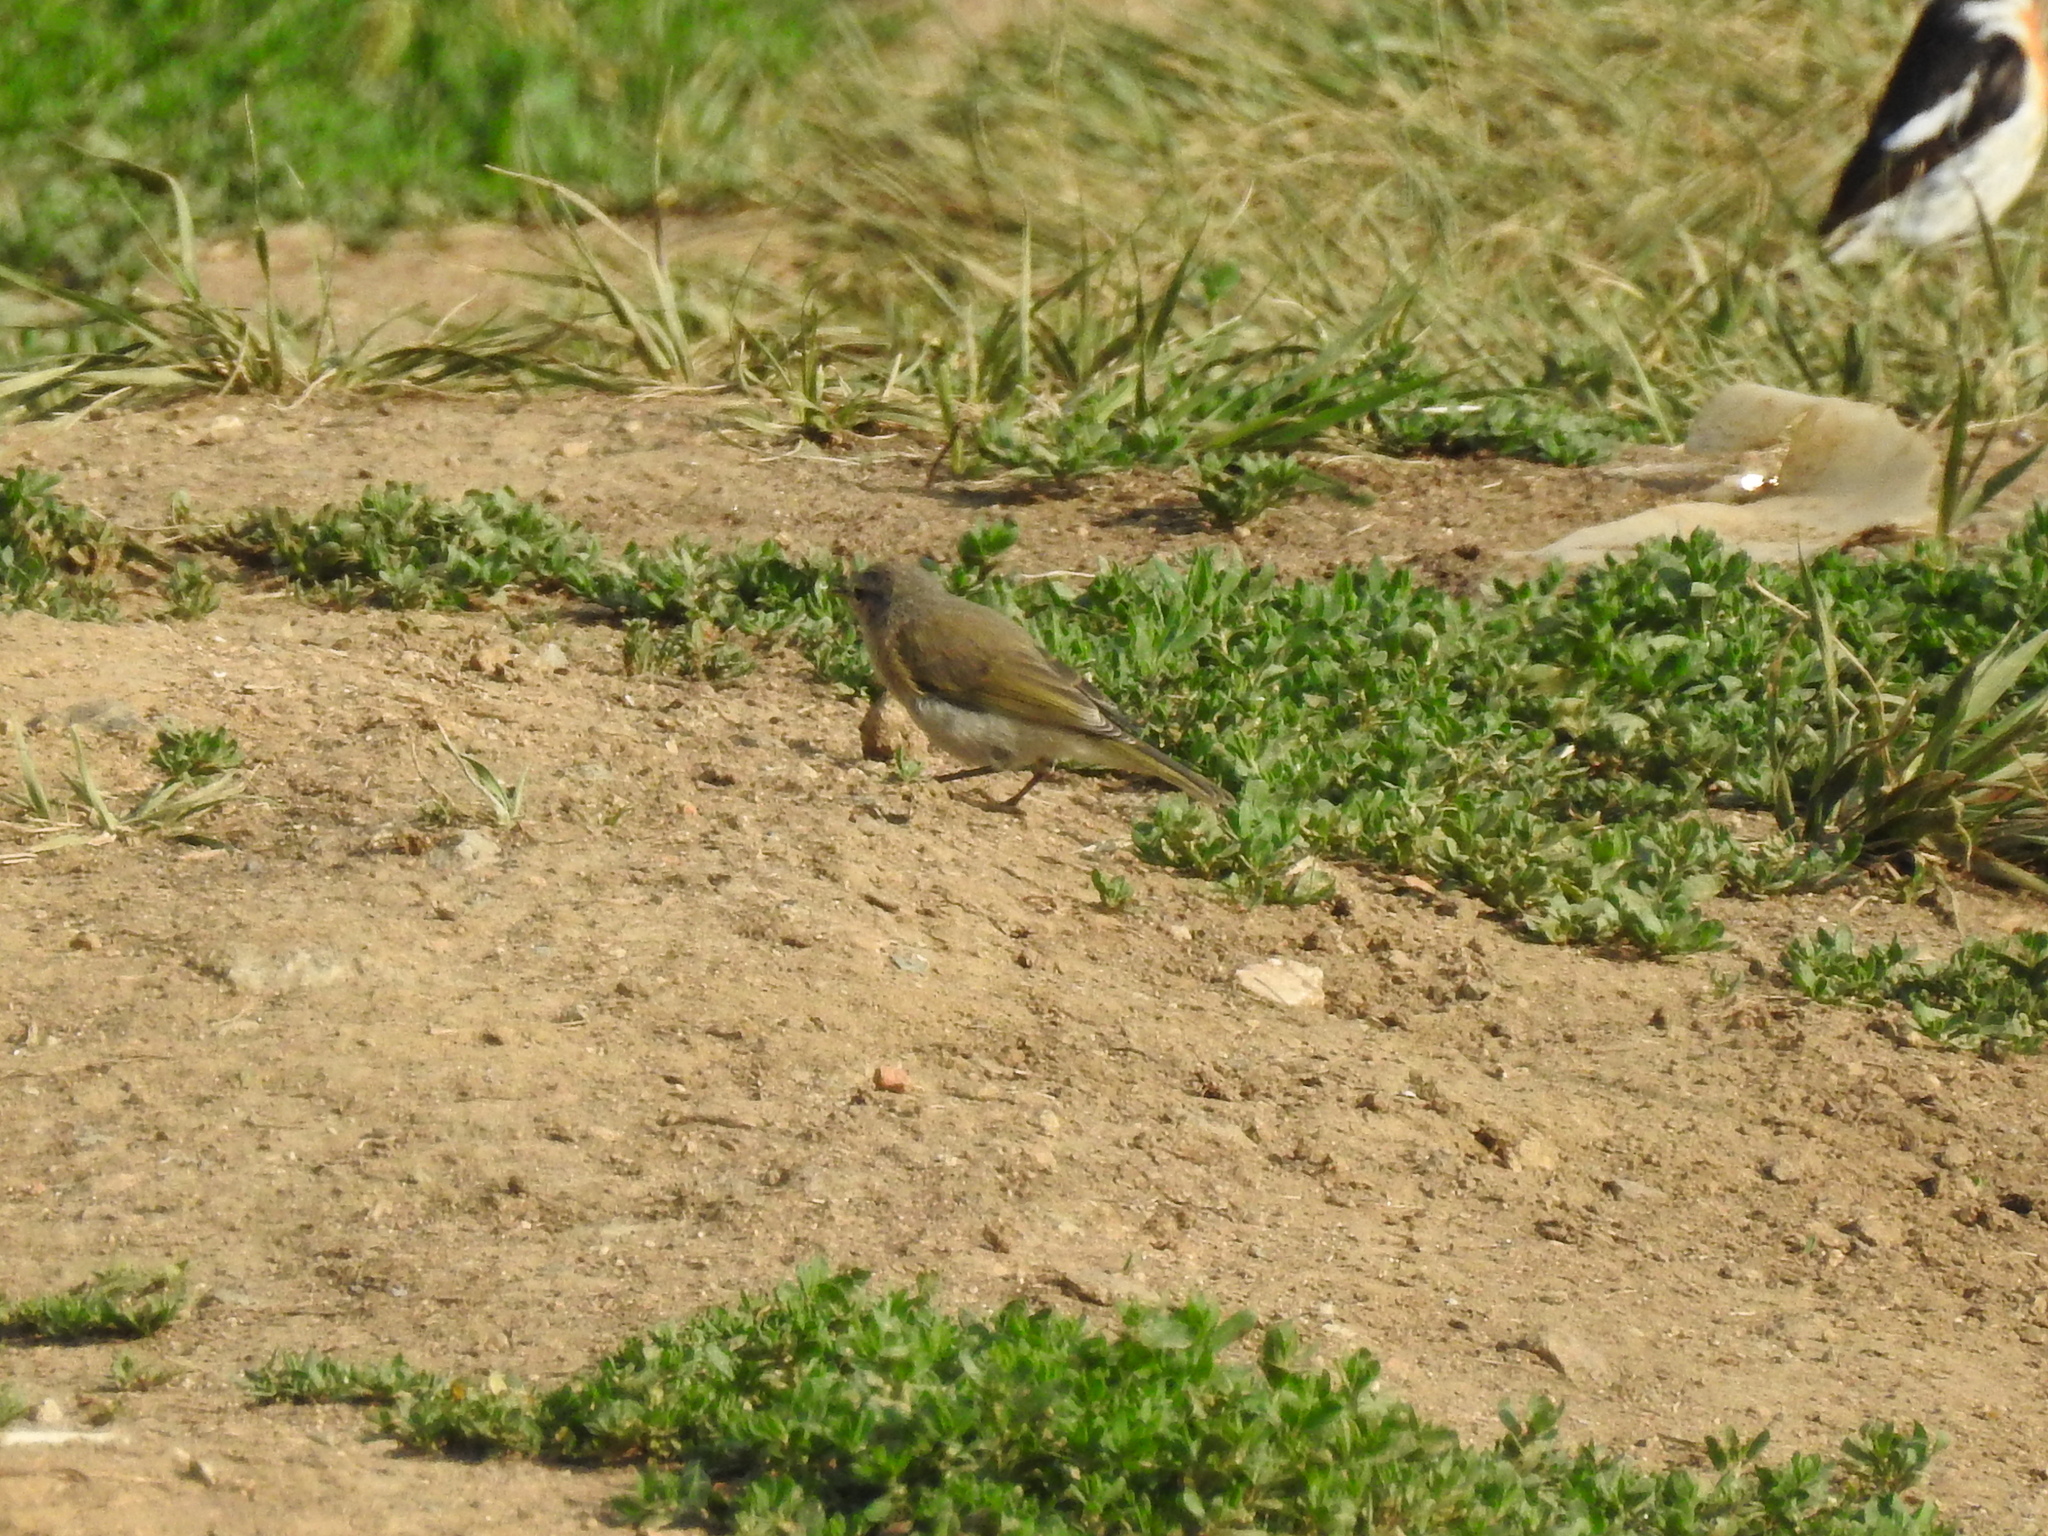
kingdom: Animalia
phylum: Chordata
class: Aves
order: Passeriformes
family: Phylloscopidae
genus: Phylloscopus
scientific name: Phylloscopus collybita
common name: Common chiffchaff
